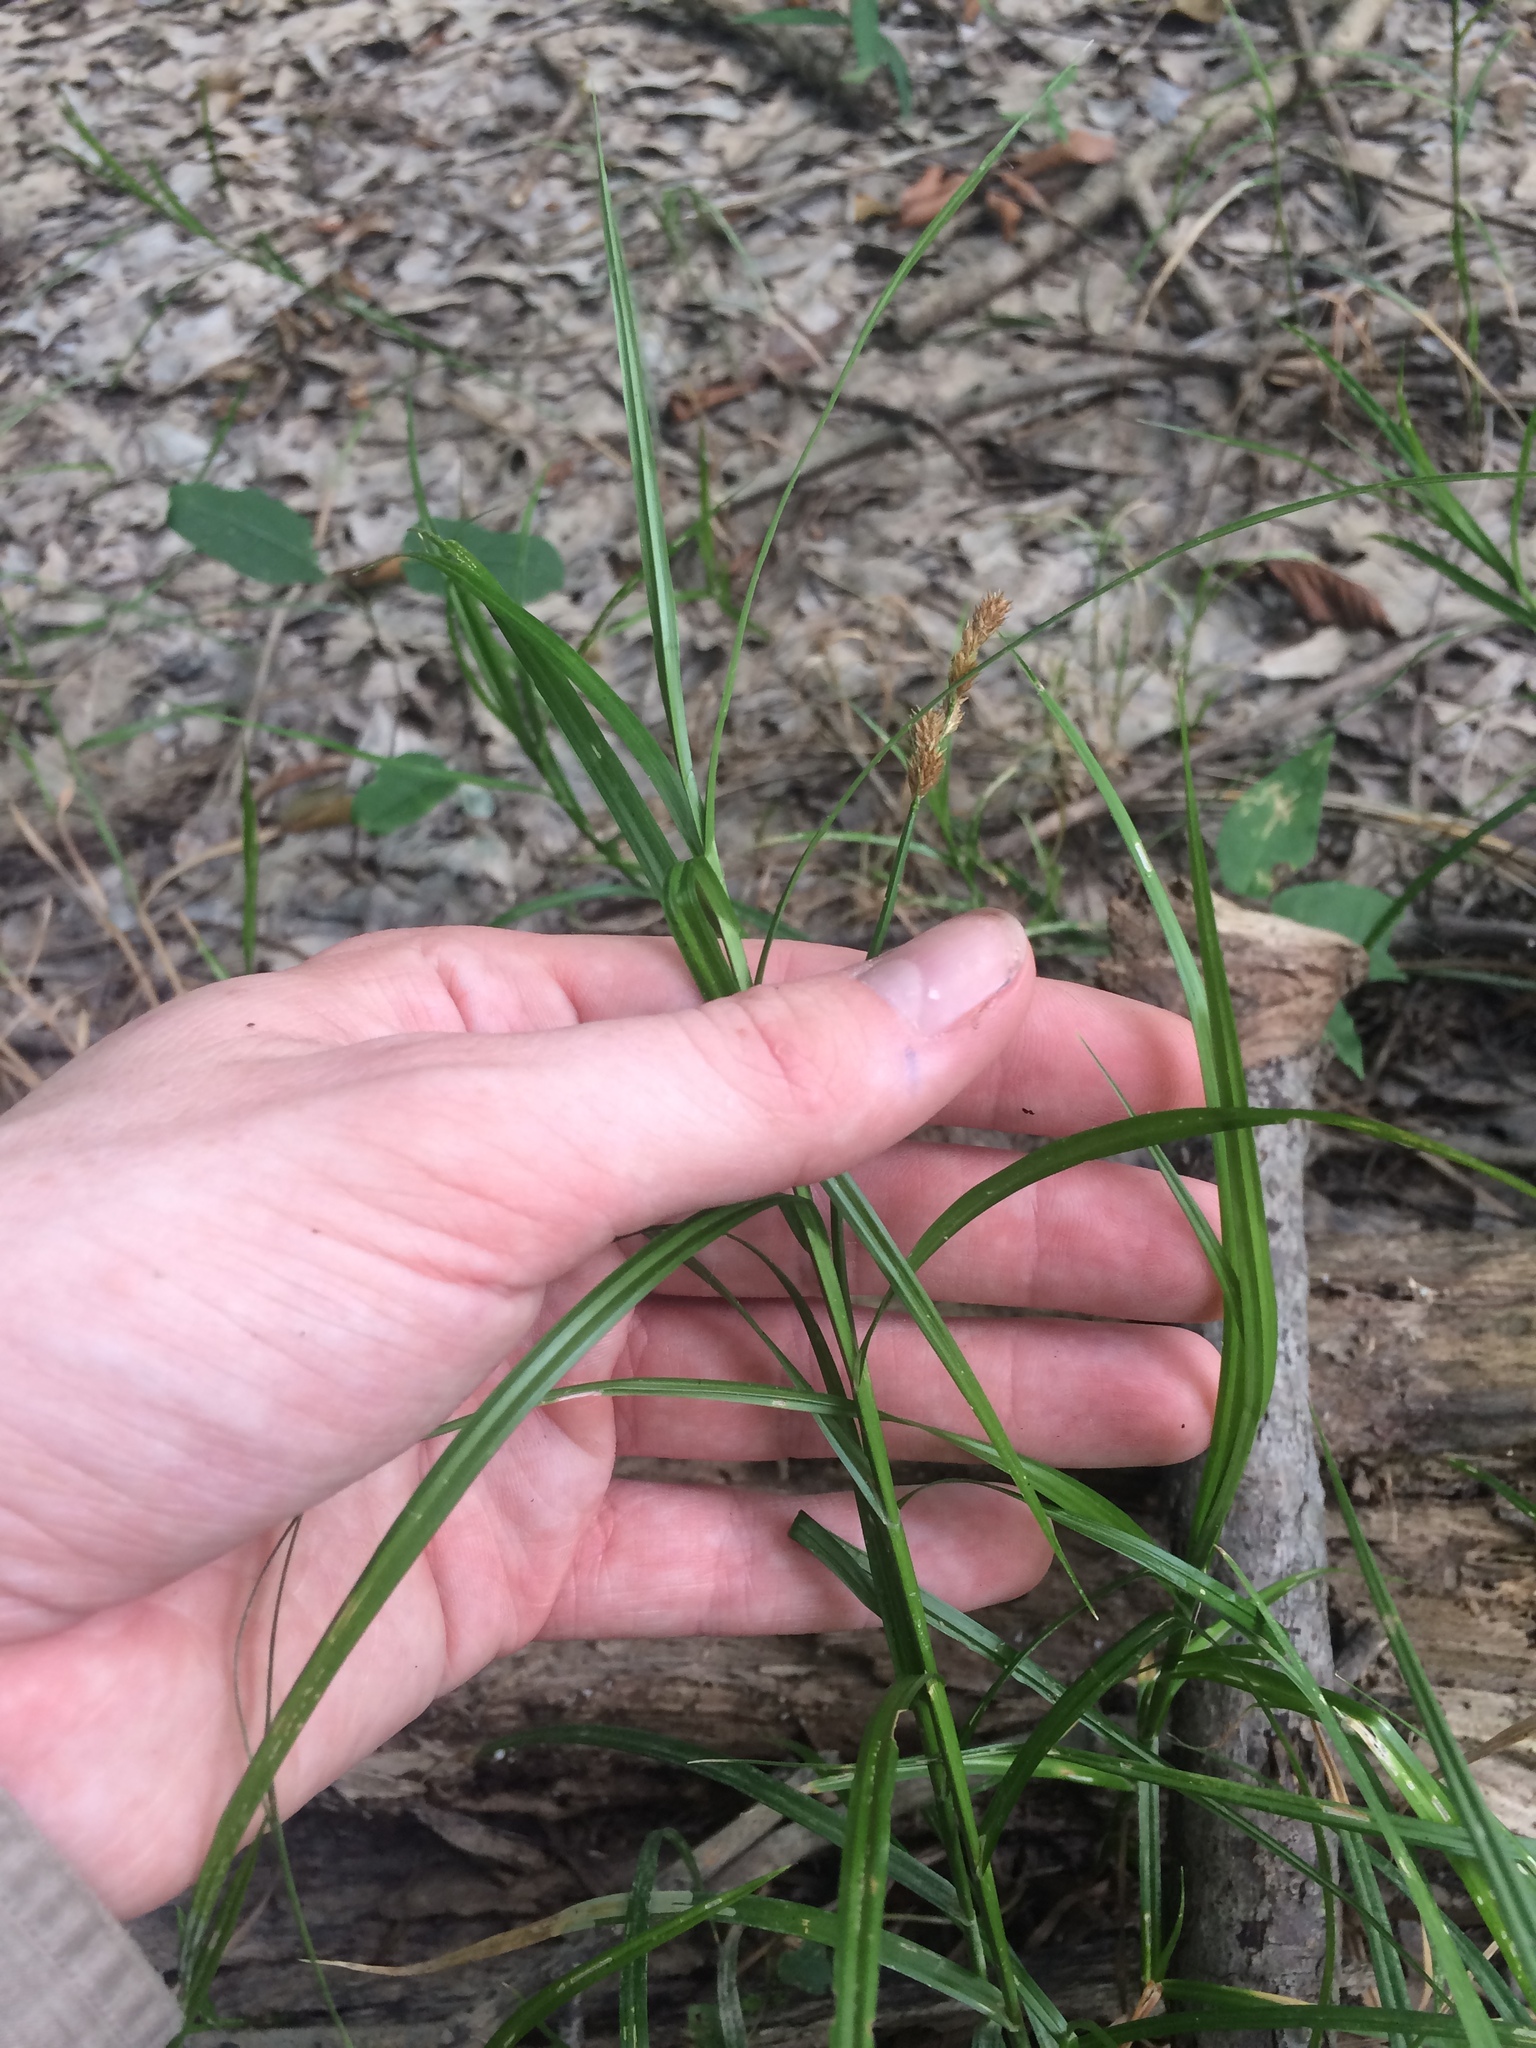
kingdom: Plantae
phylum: Tracheophyta
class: Liliopsida
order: Poales
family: Cyperaceae
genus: Carex
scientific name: Carex tribuloides
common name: Blunt broom sedge
